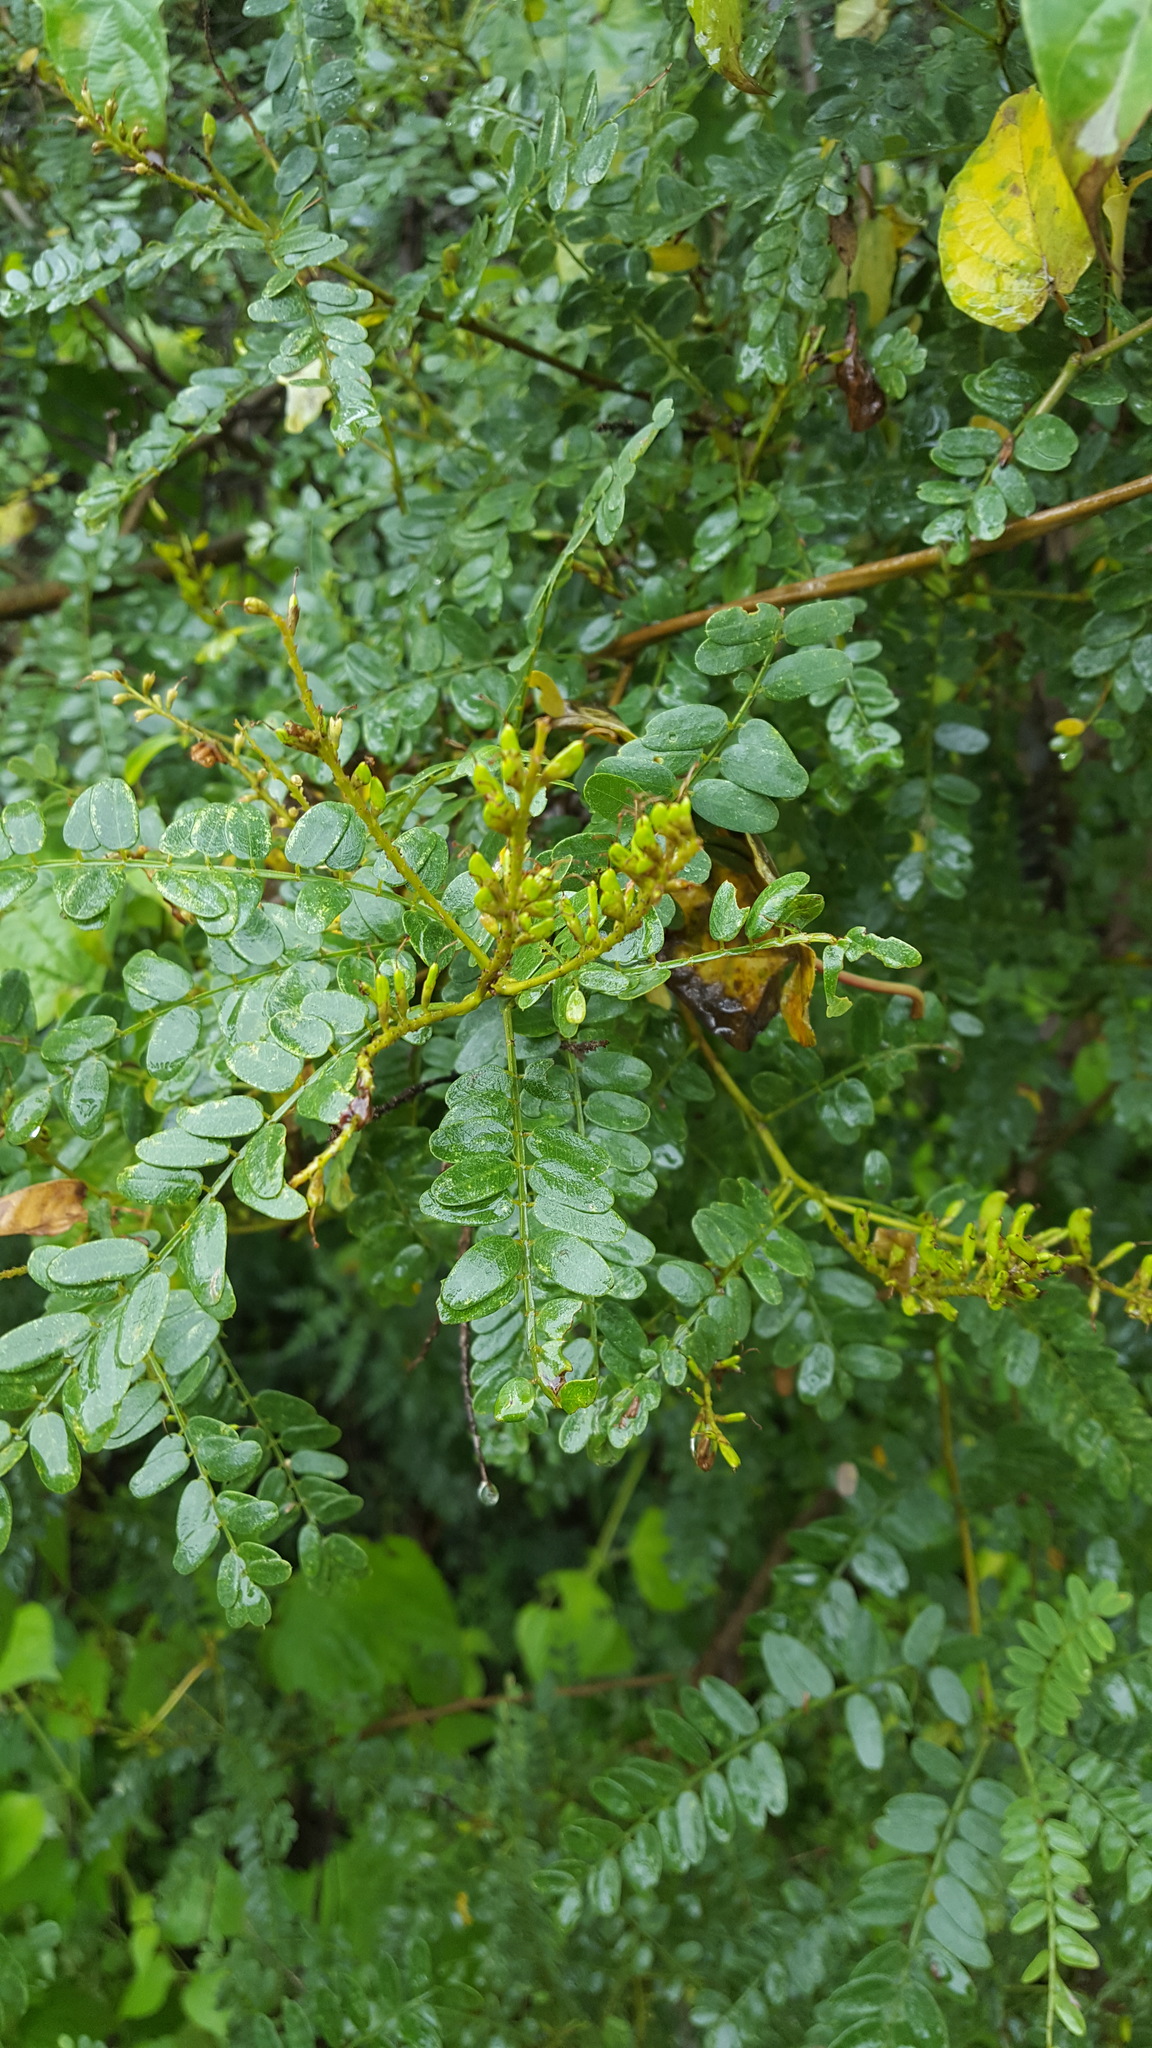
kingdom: Plantae
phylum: Tracheophyta
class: Magnoliopsida
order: Fabales
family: Fabaceae
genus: Eysenhardtia
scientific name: Eysenhardtia polystachya
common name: Kidneywood
